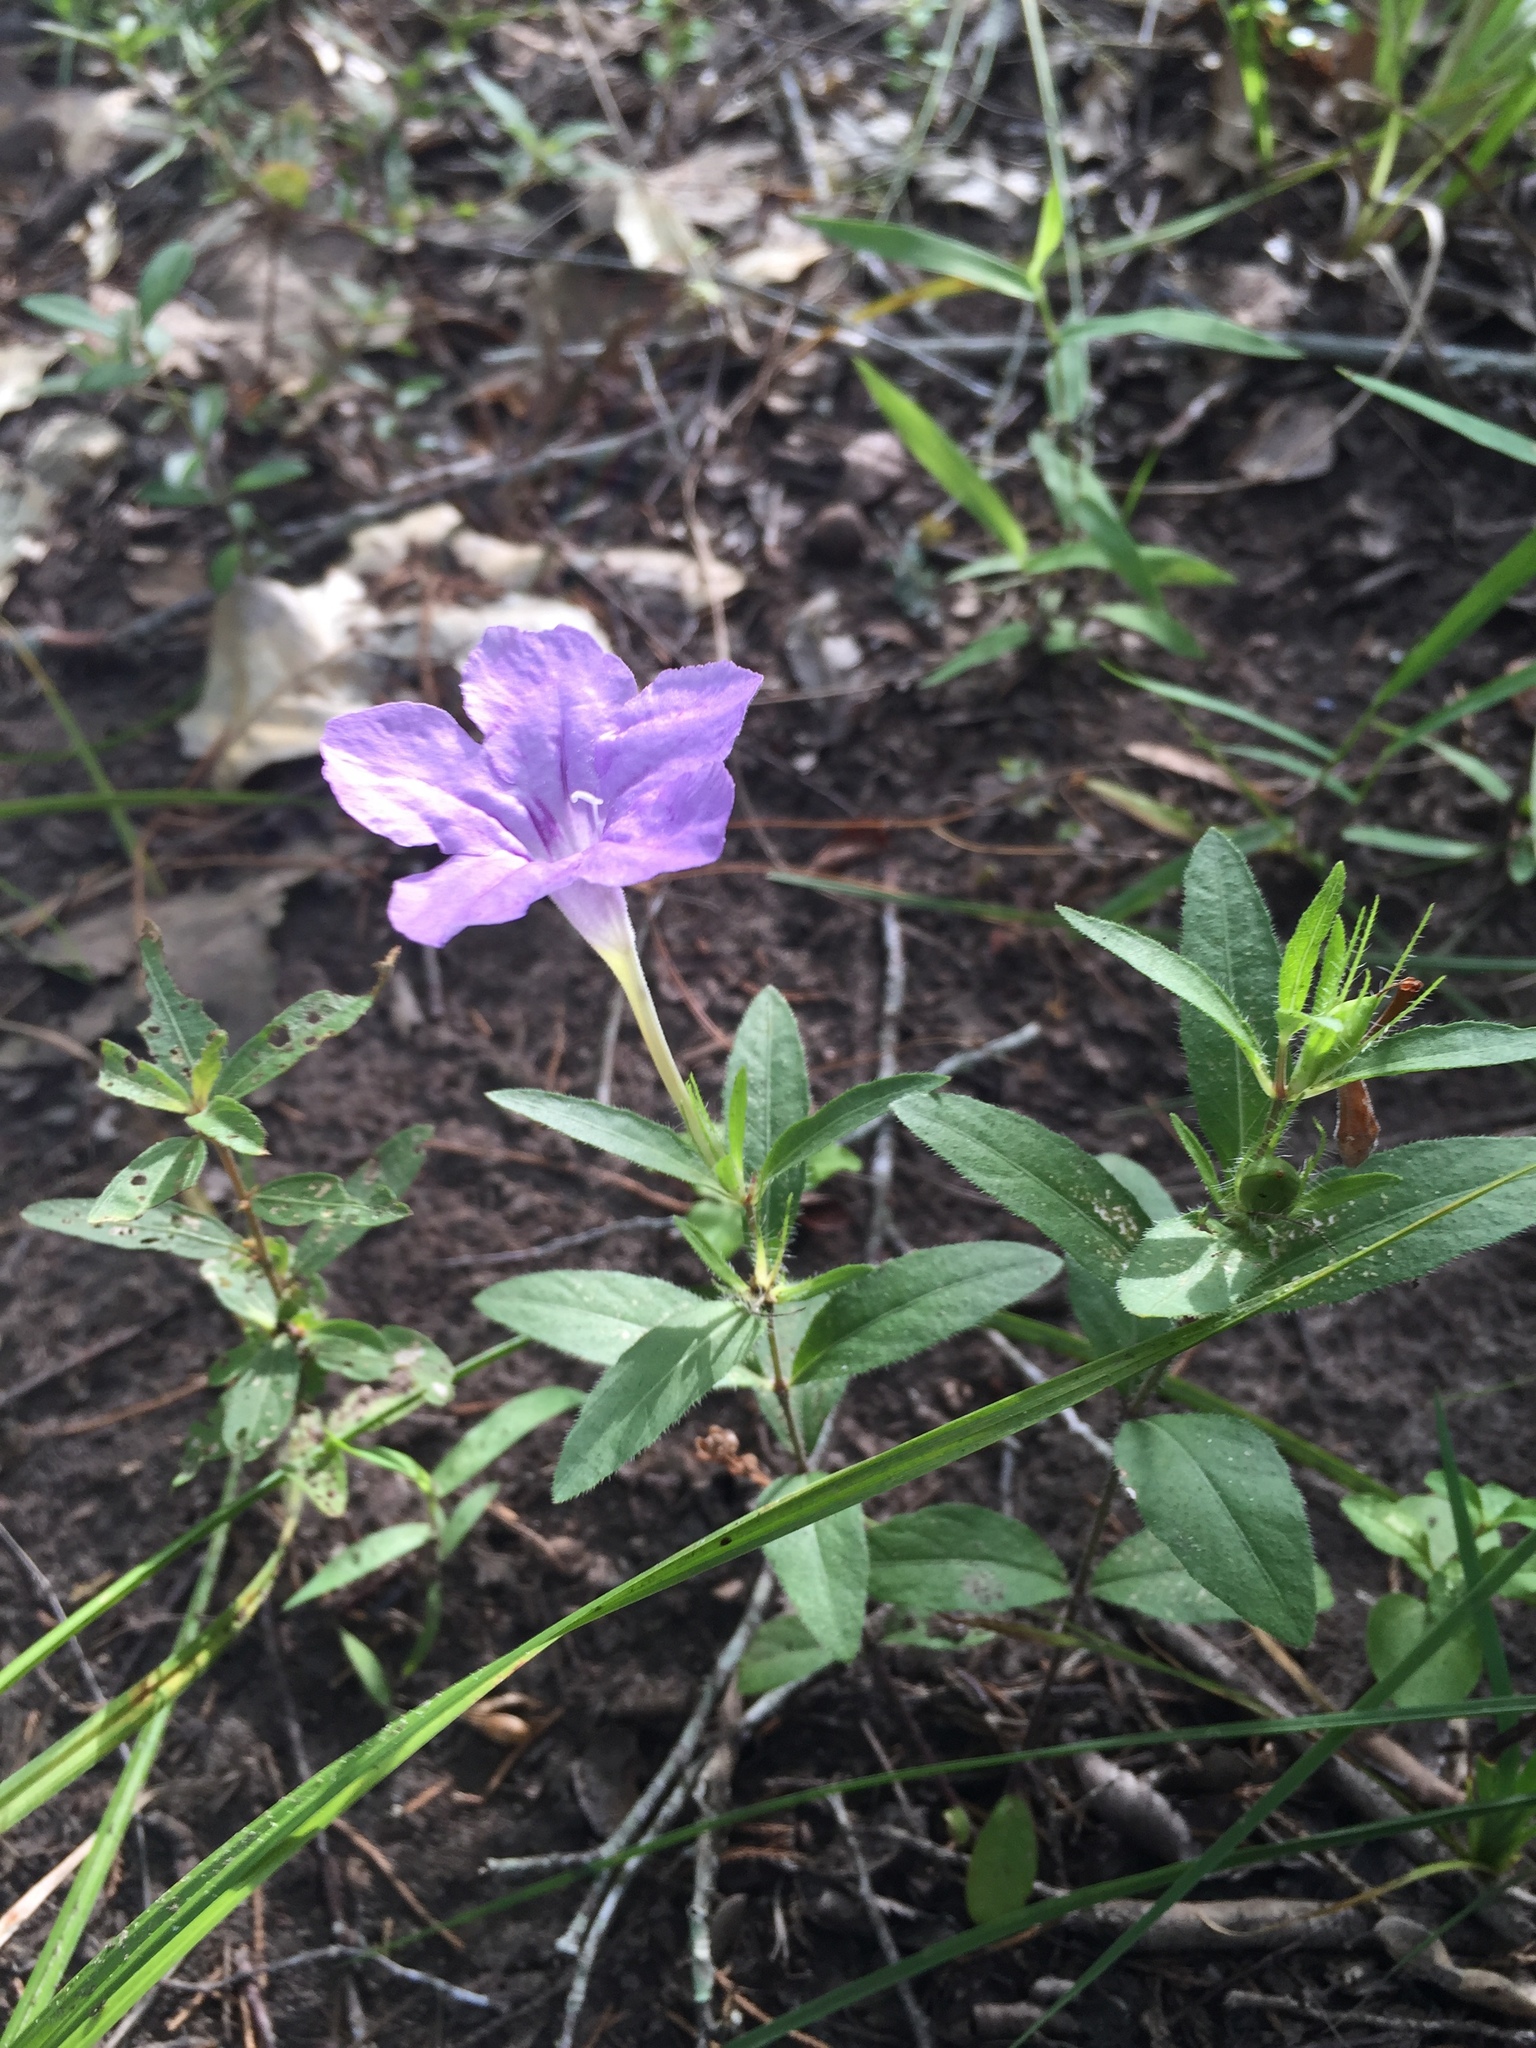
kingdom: Plantae
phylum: Tracheophyta
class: Magnoliopsida
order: Lamiales
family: Acanthaceae
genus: Ruellia
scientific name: Ruellia humilis
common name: Fringe-leaf ruellia
